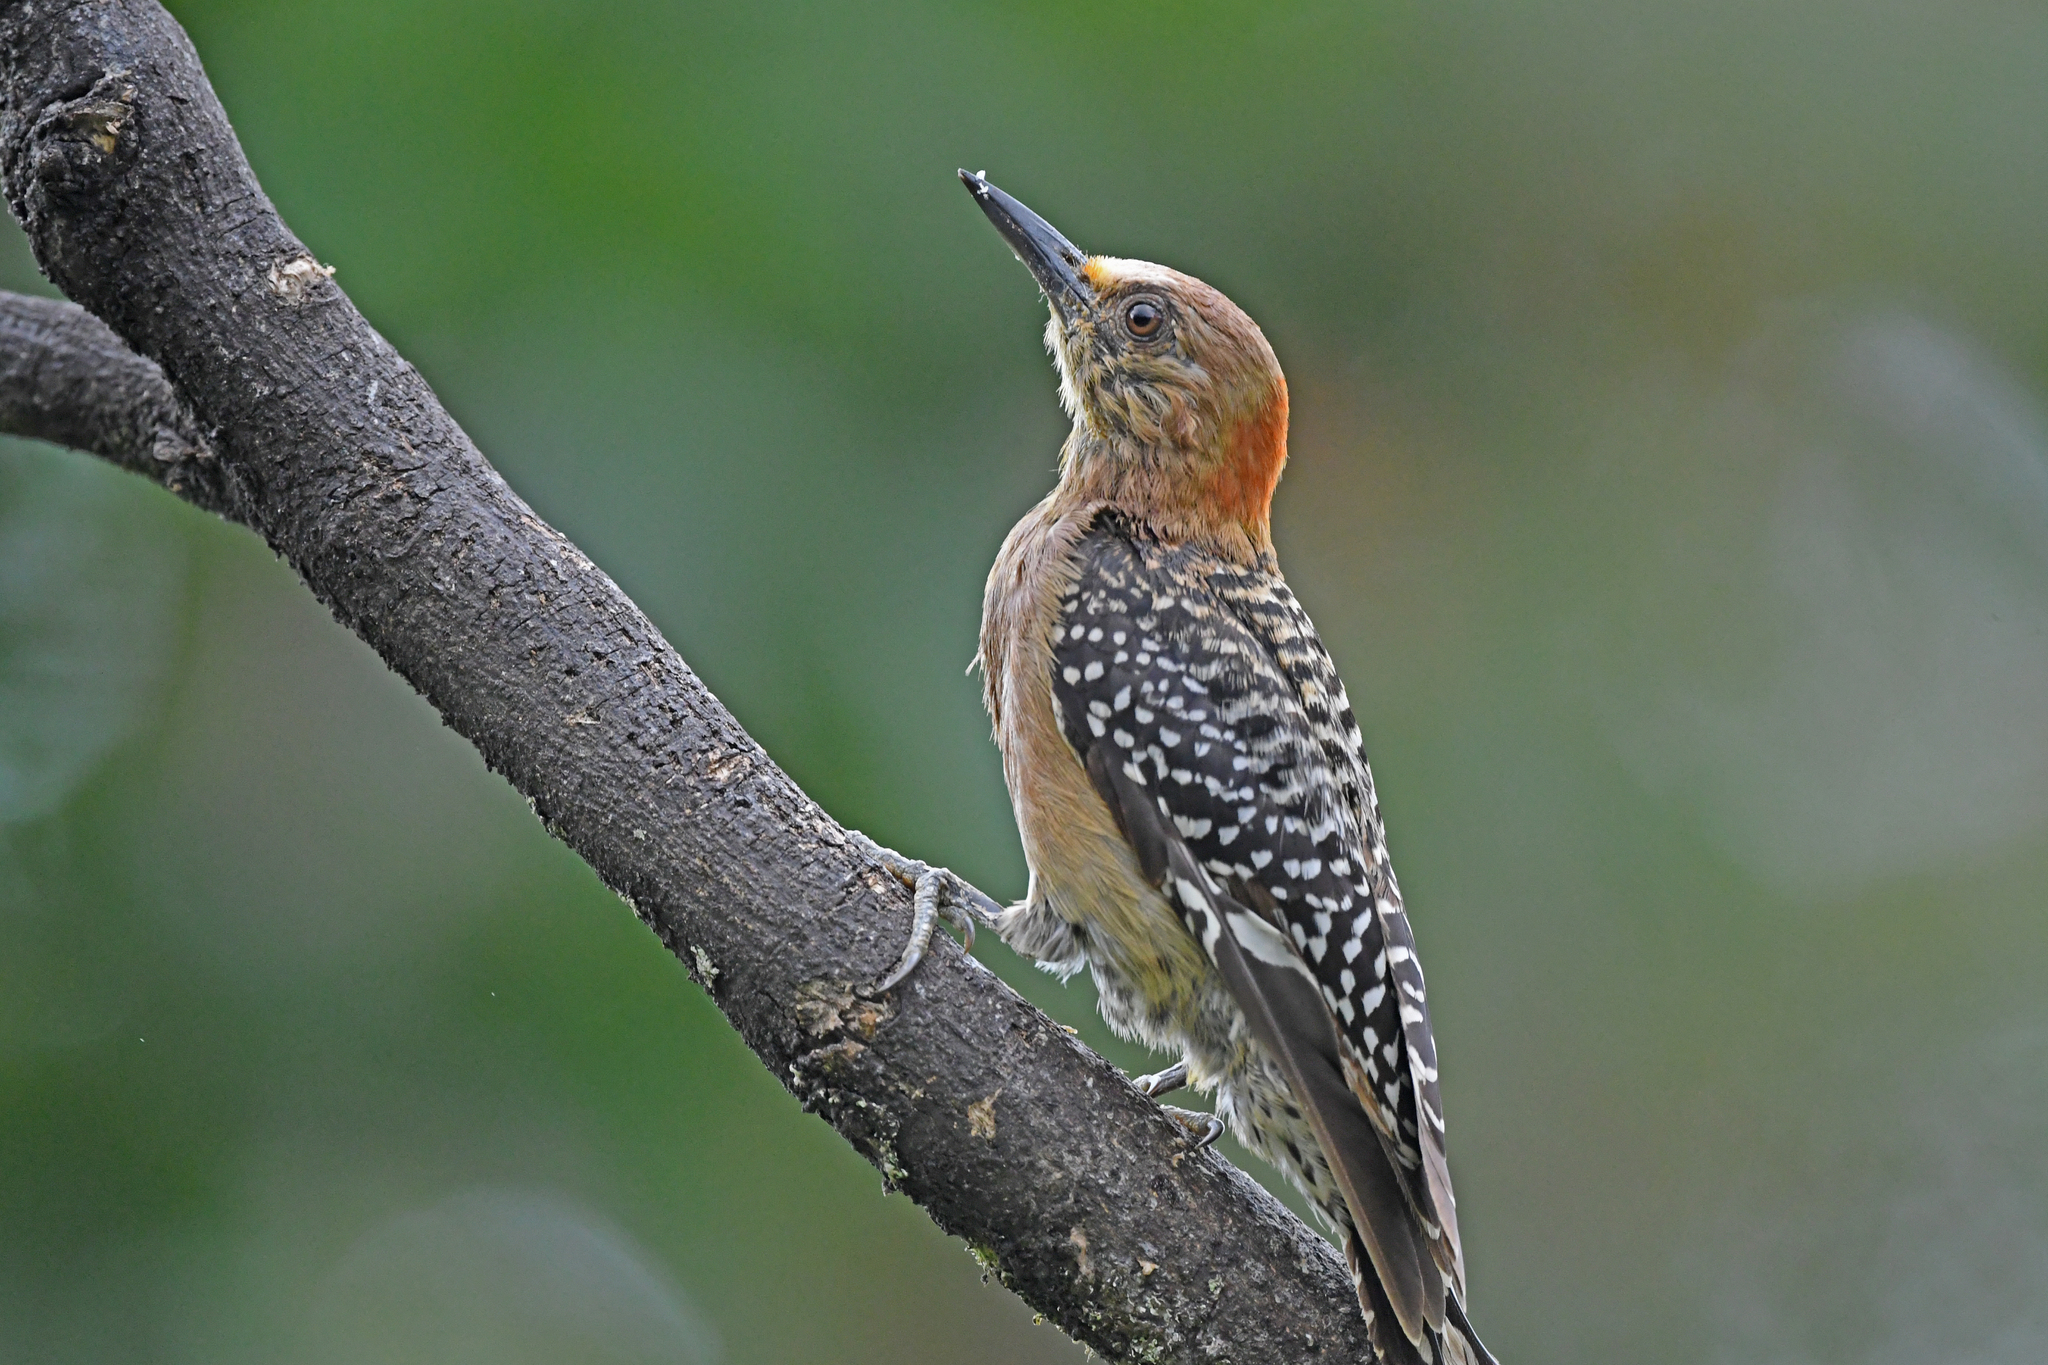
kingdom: Animalia
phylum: Chordata
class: Aves
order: Piciformes
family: Picidae
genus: Melanerpes
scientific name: Melanerpes rubricapillus
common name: Red-crowned woodpecker
